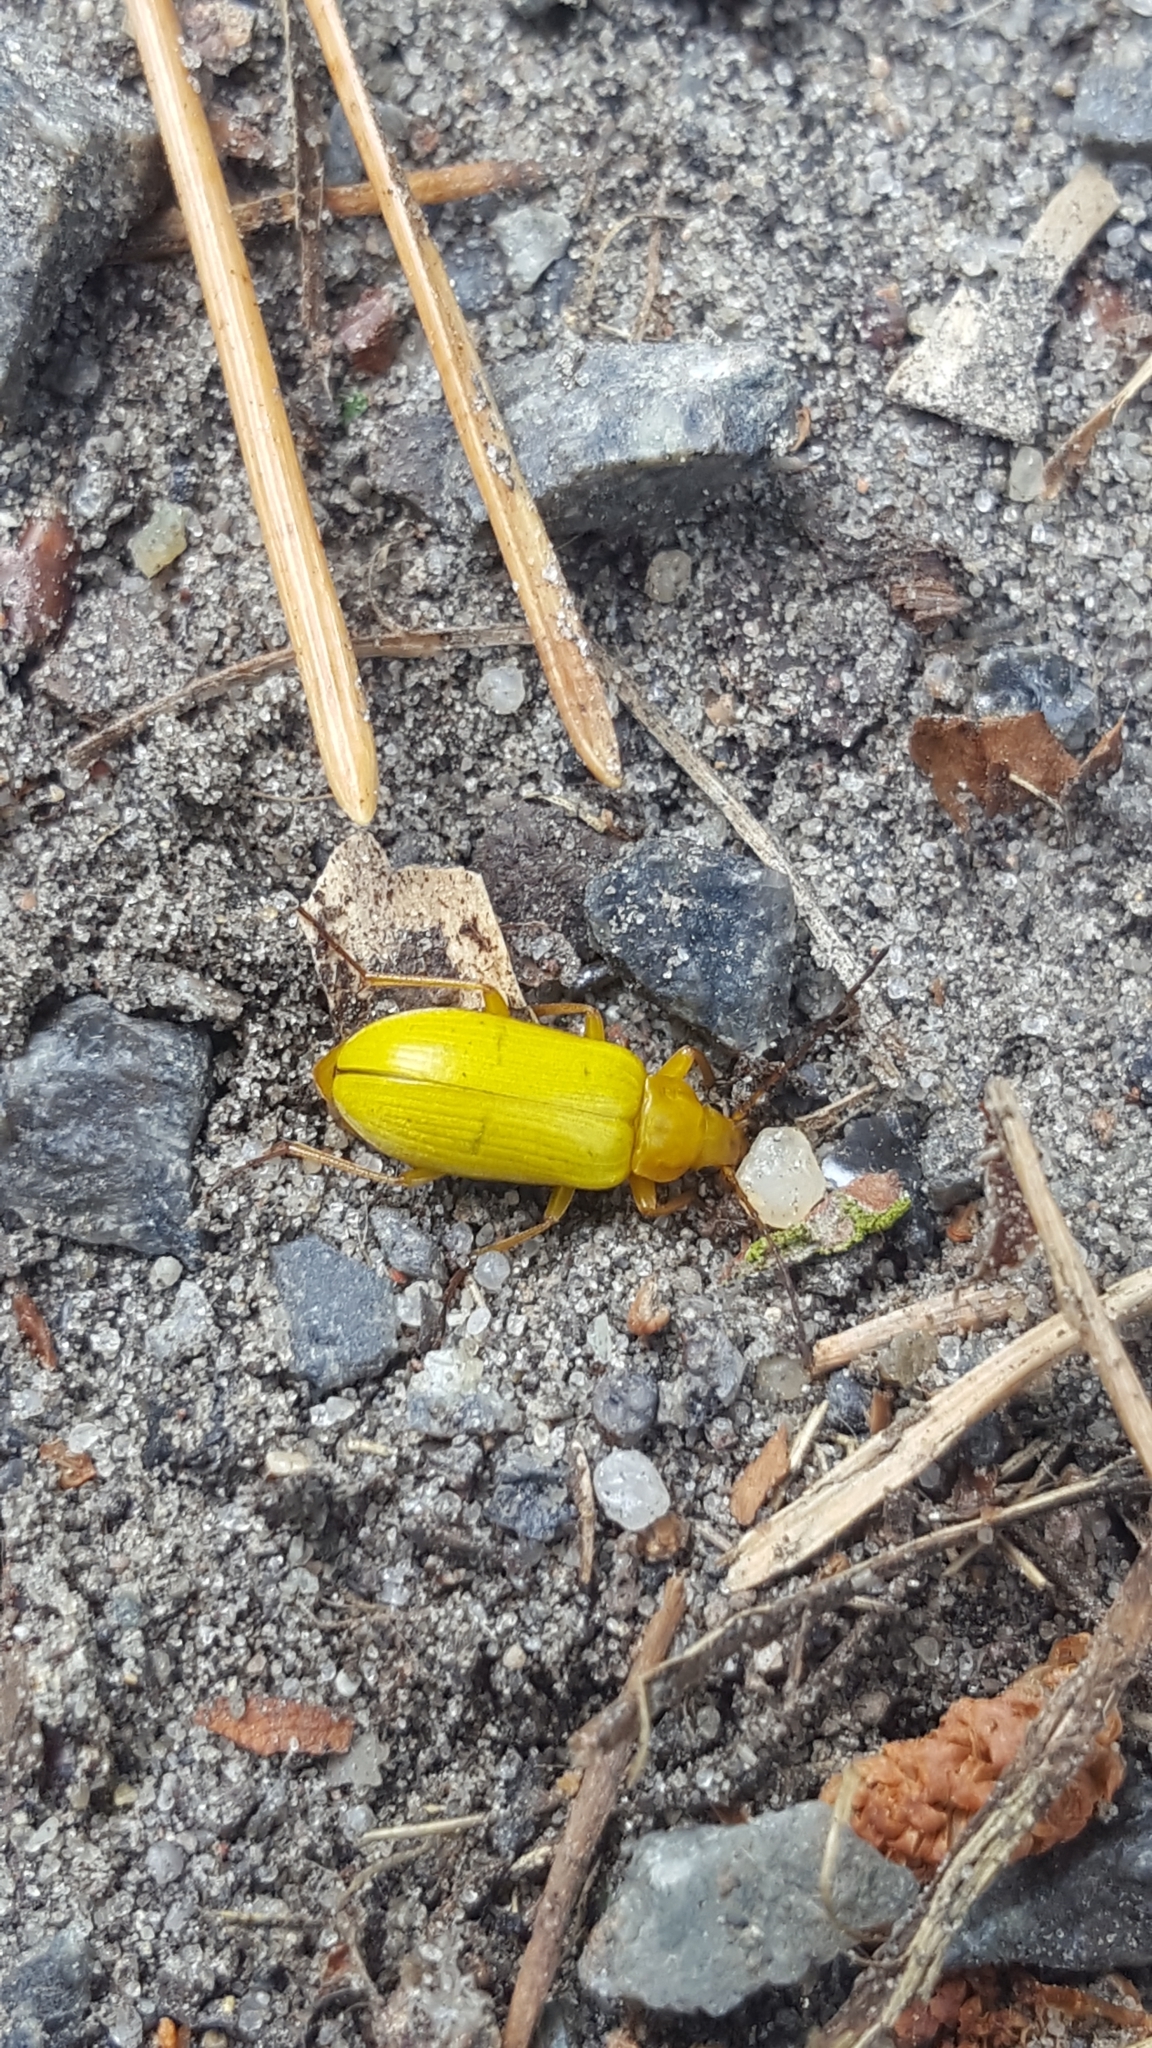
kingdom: Animalia
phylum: Arthropoda
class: Insecta
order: Coleoptera
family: Tenebrionidae
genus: Cteniopus
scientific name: Cteniopus sulphureus
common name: Sulphur beetle
